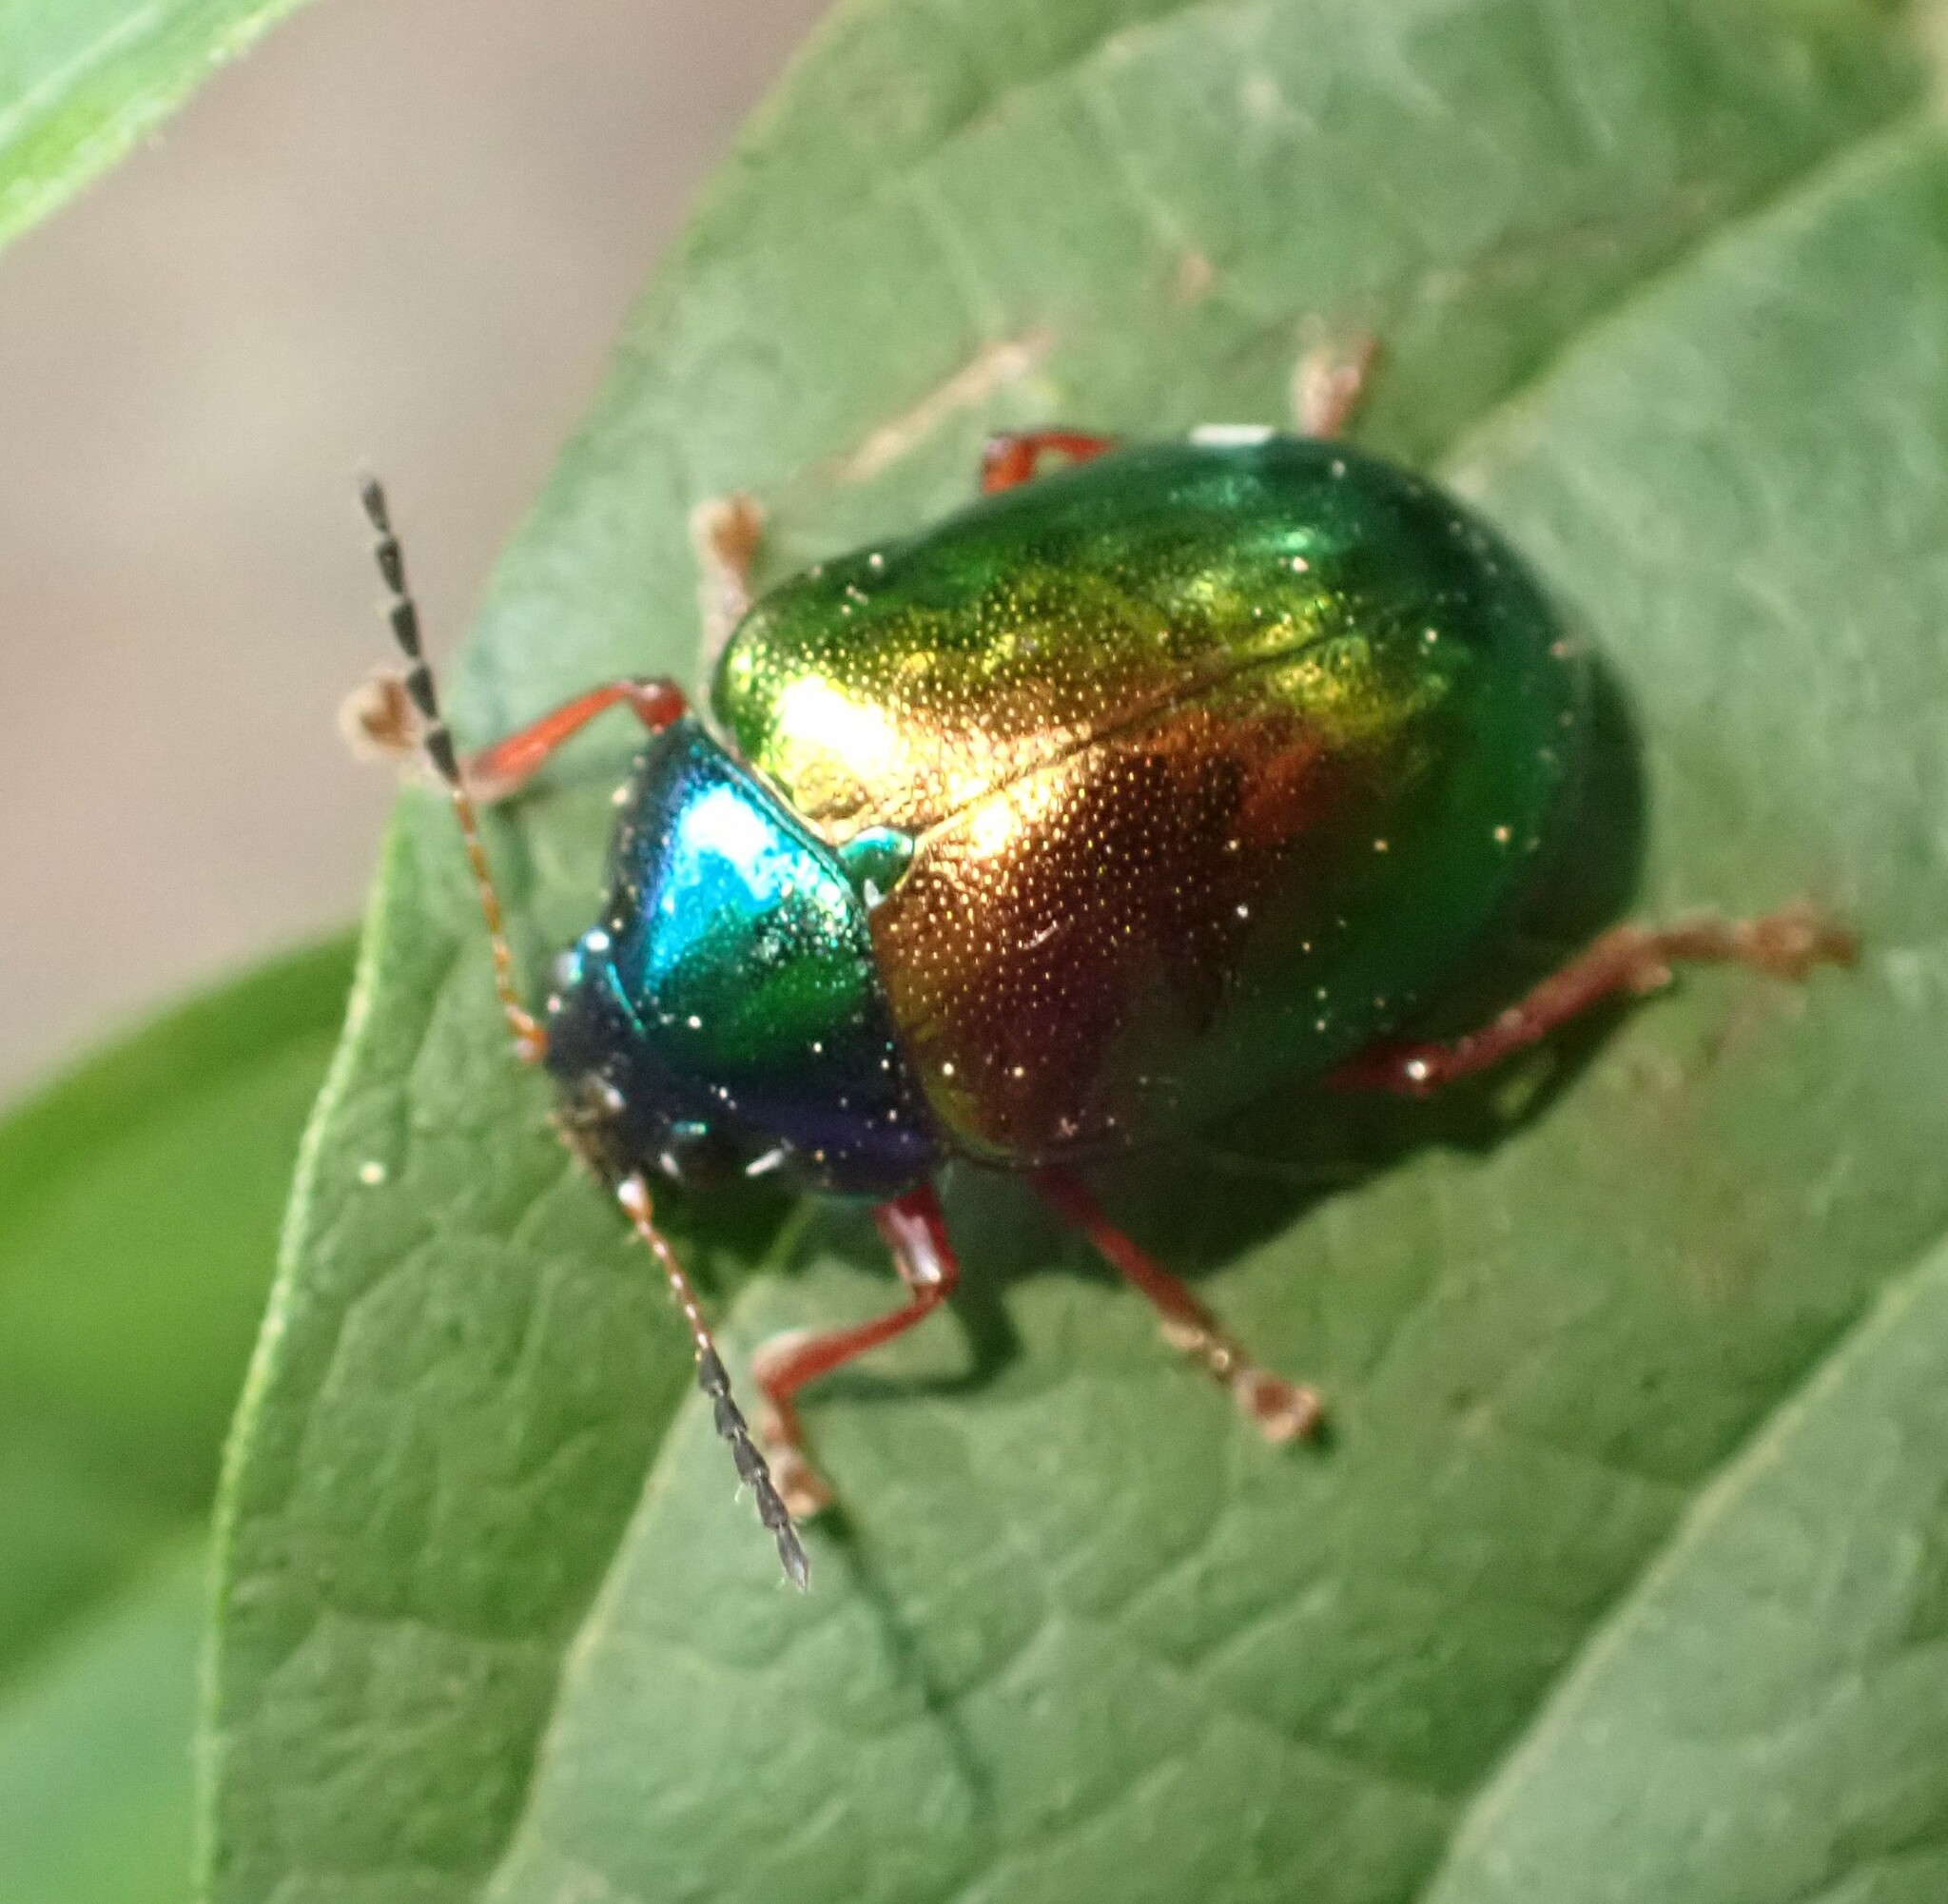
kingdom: Animalia
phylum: Arthropoda
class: Insecta
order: Coleoptera
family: Chrysomelidae
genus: Iphimeis
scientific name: Iphimeis
